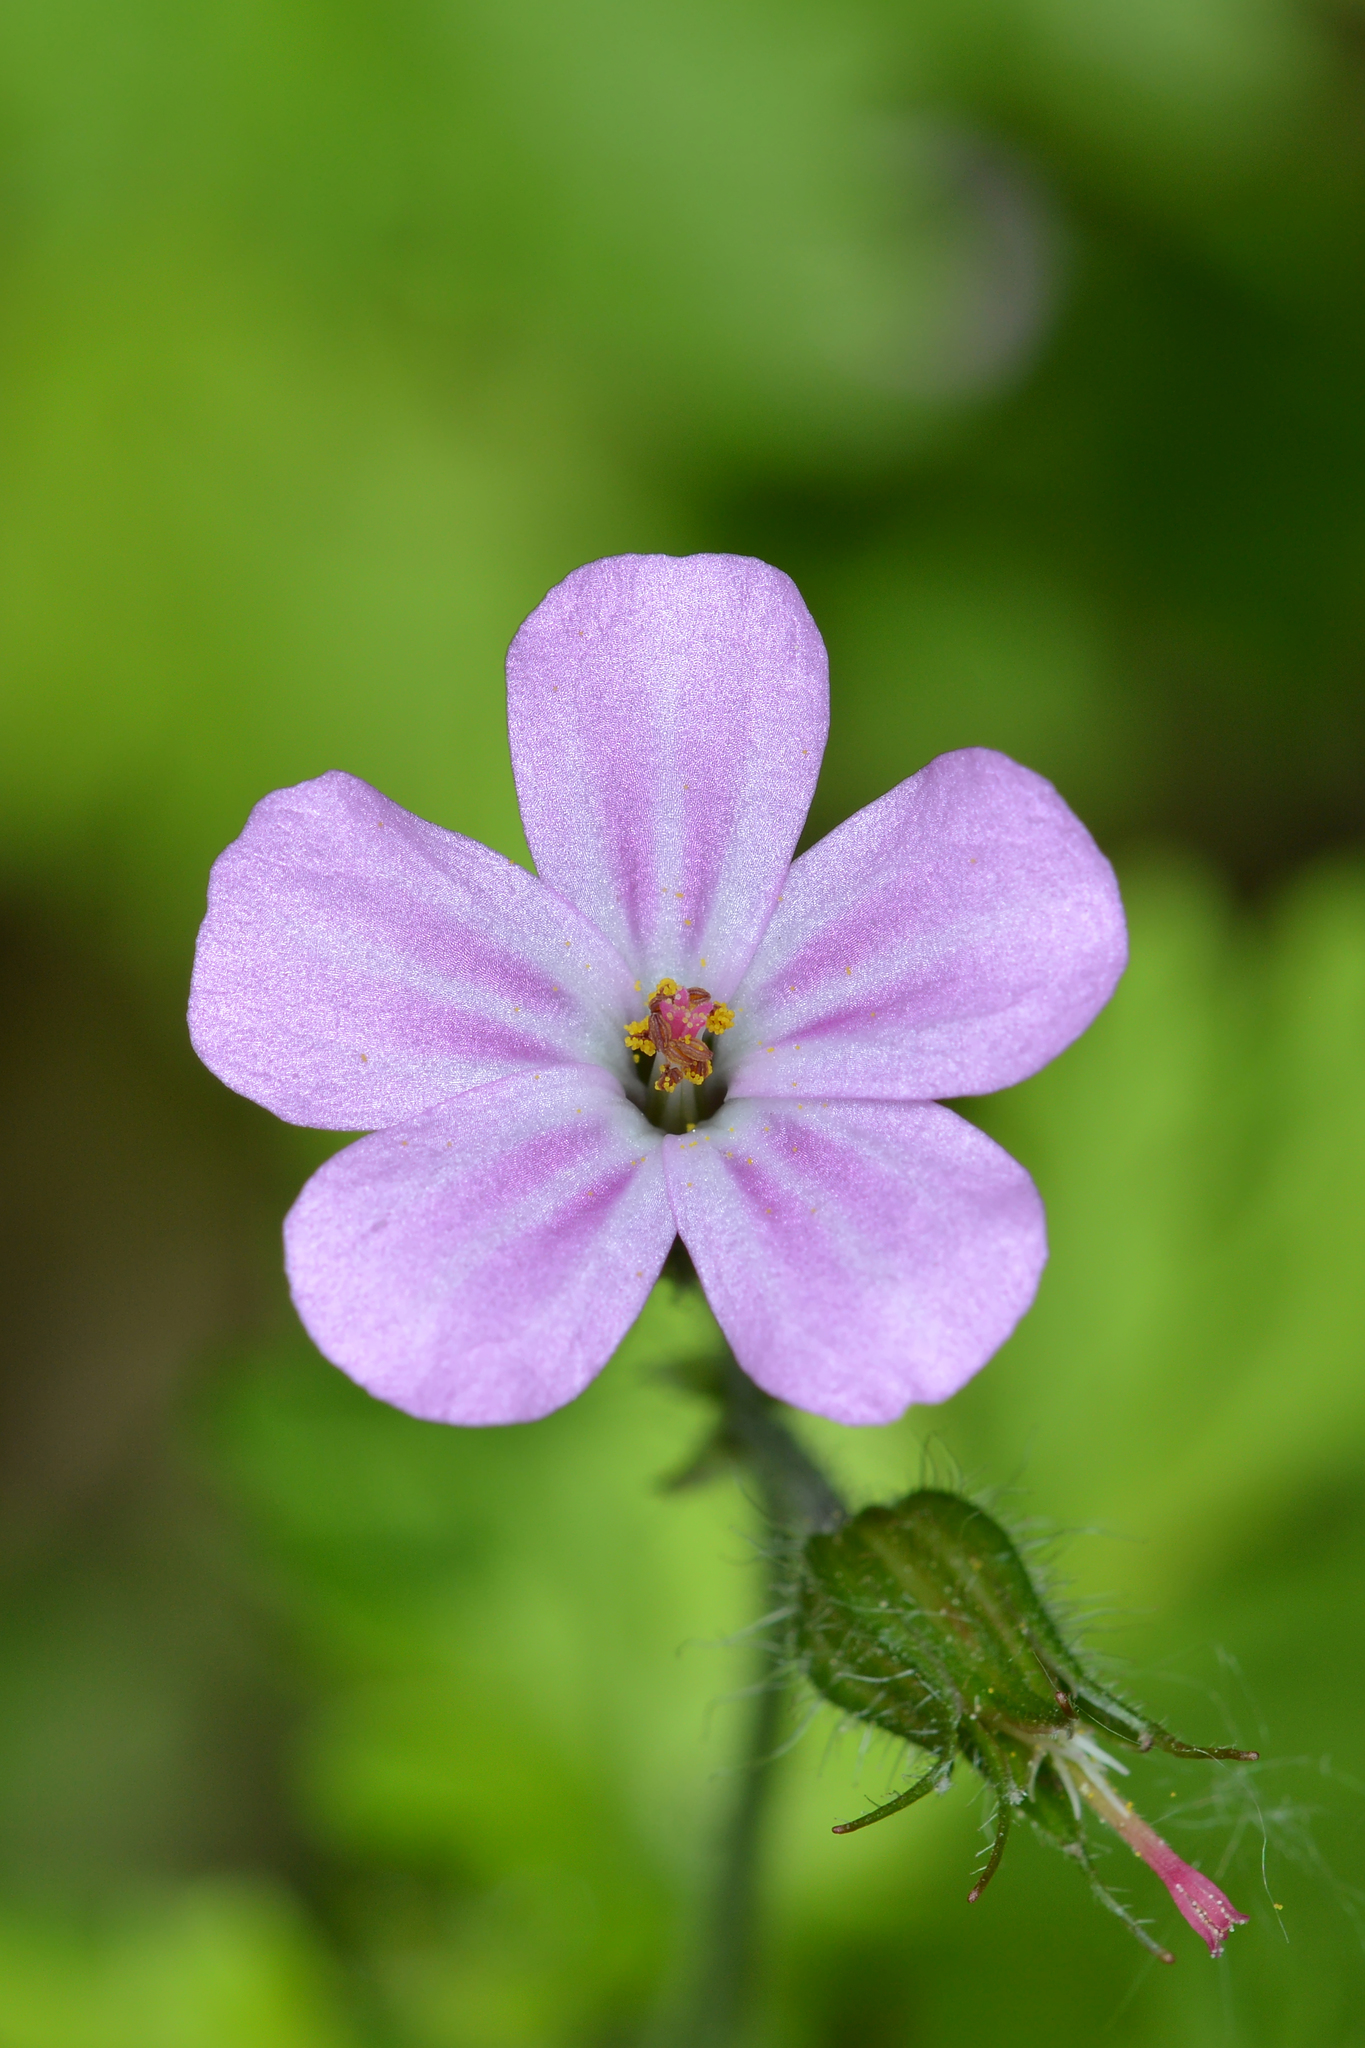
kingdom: Plantae
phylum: Tracheophyta
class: Magnoliopsida
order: Geraniales
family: Geraniaceae
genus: Geranium
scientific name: Geranium robertianum
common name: Herb-robert
